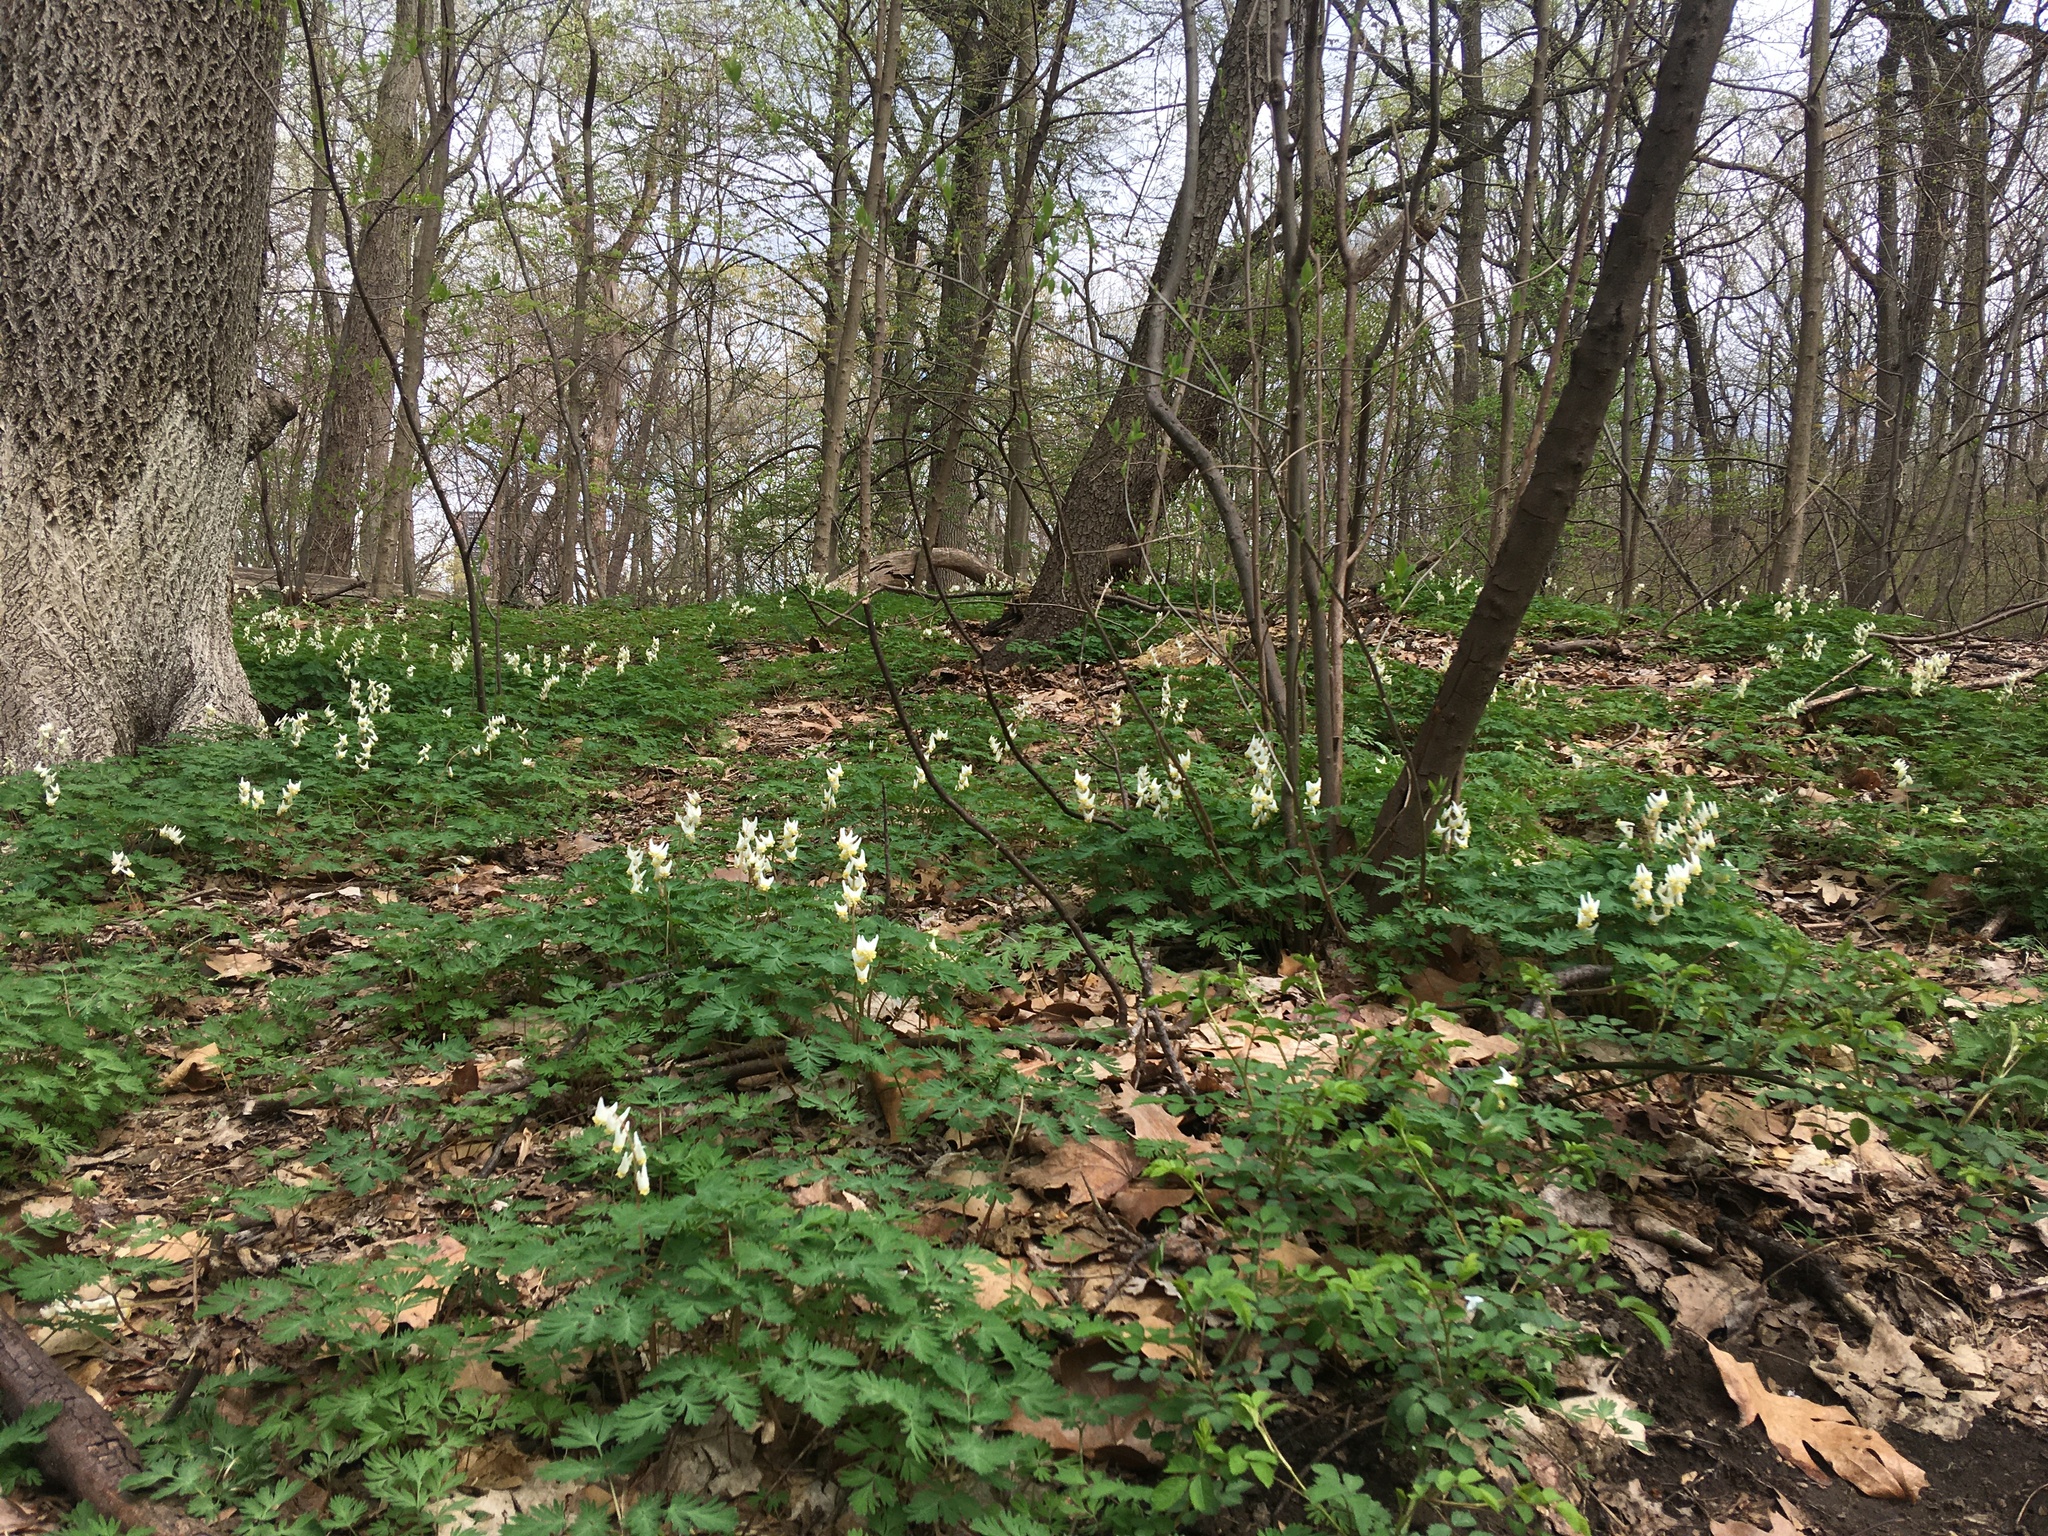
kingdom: Plantae
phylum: Tracheophyta
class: Magnoliopsida
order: Ranunculales
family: Papaveraceae
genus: Dicentra
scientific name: Dicentra cucullaria
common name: Dutchman's breeches
